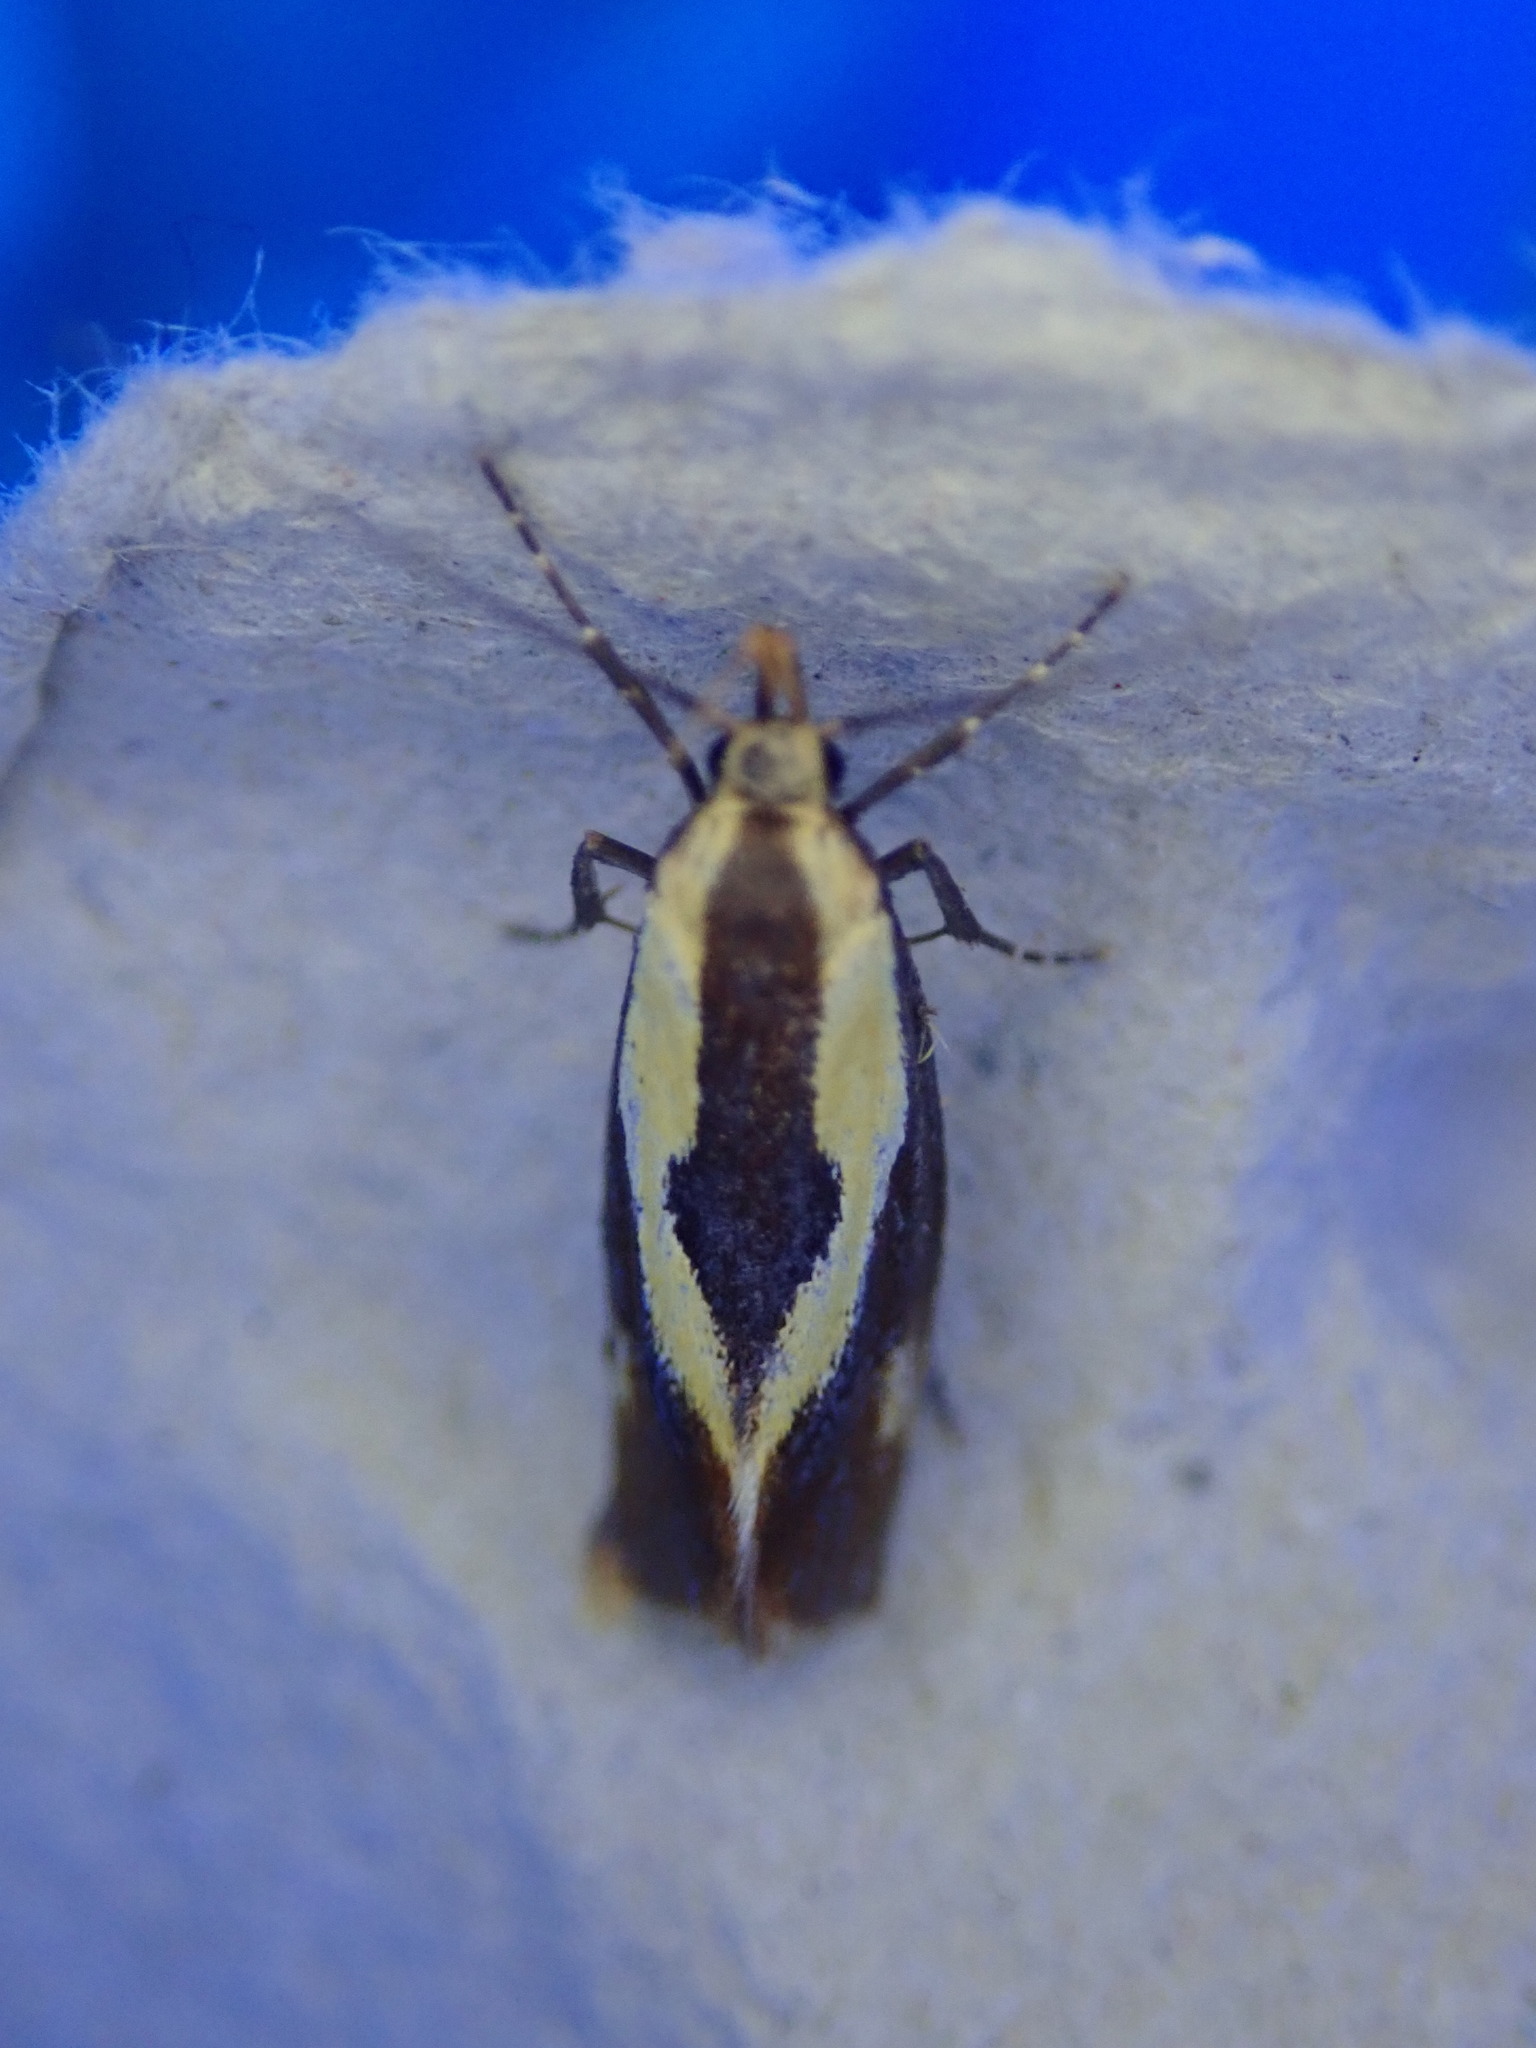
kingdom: Animalia
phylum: Arthropoda
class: Insecta
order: Lepidoptera
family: Oecophoridae
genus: Harpella
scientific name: Harpella forficella
